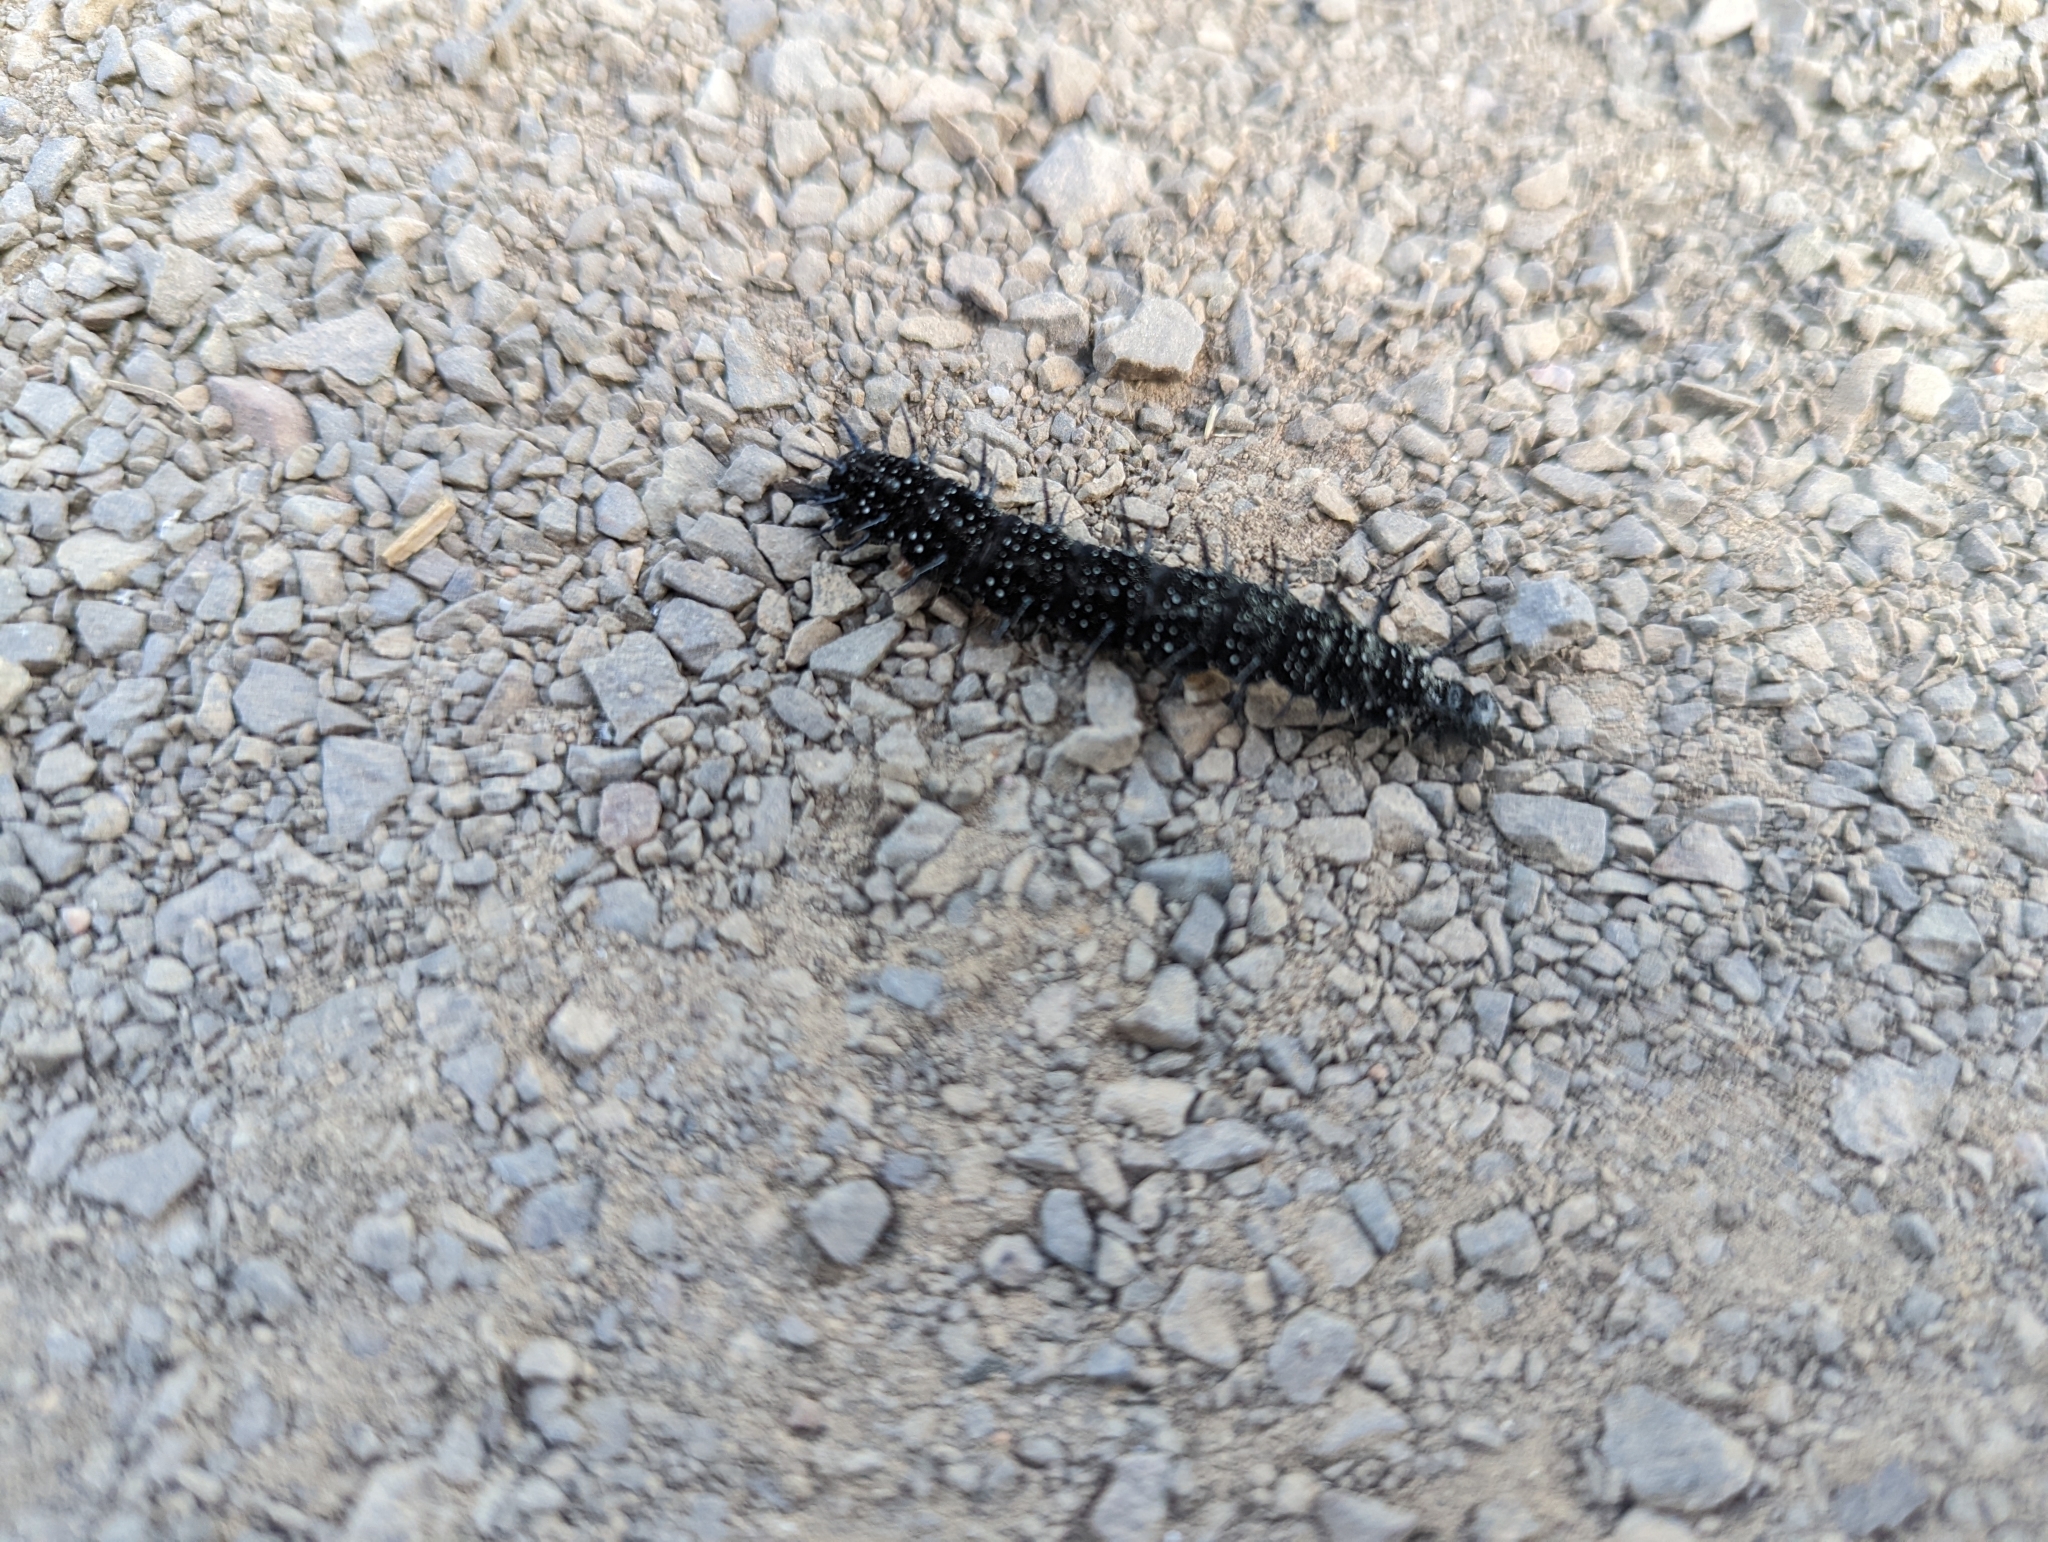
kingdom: Animalia
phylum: Arthropoda
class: Insecta
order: Lepidoptera
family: Nymphalidae
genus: Aglais
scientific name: Aglais io
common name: Peacock
